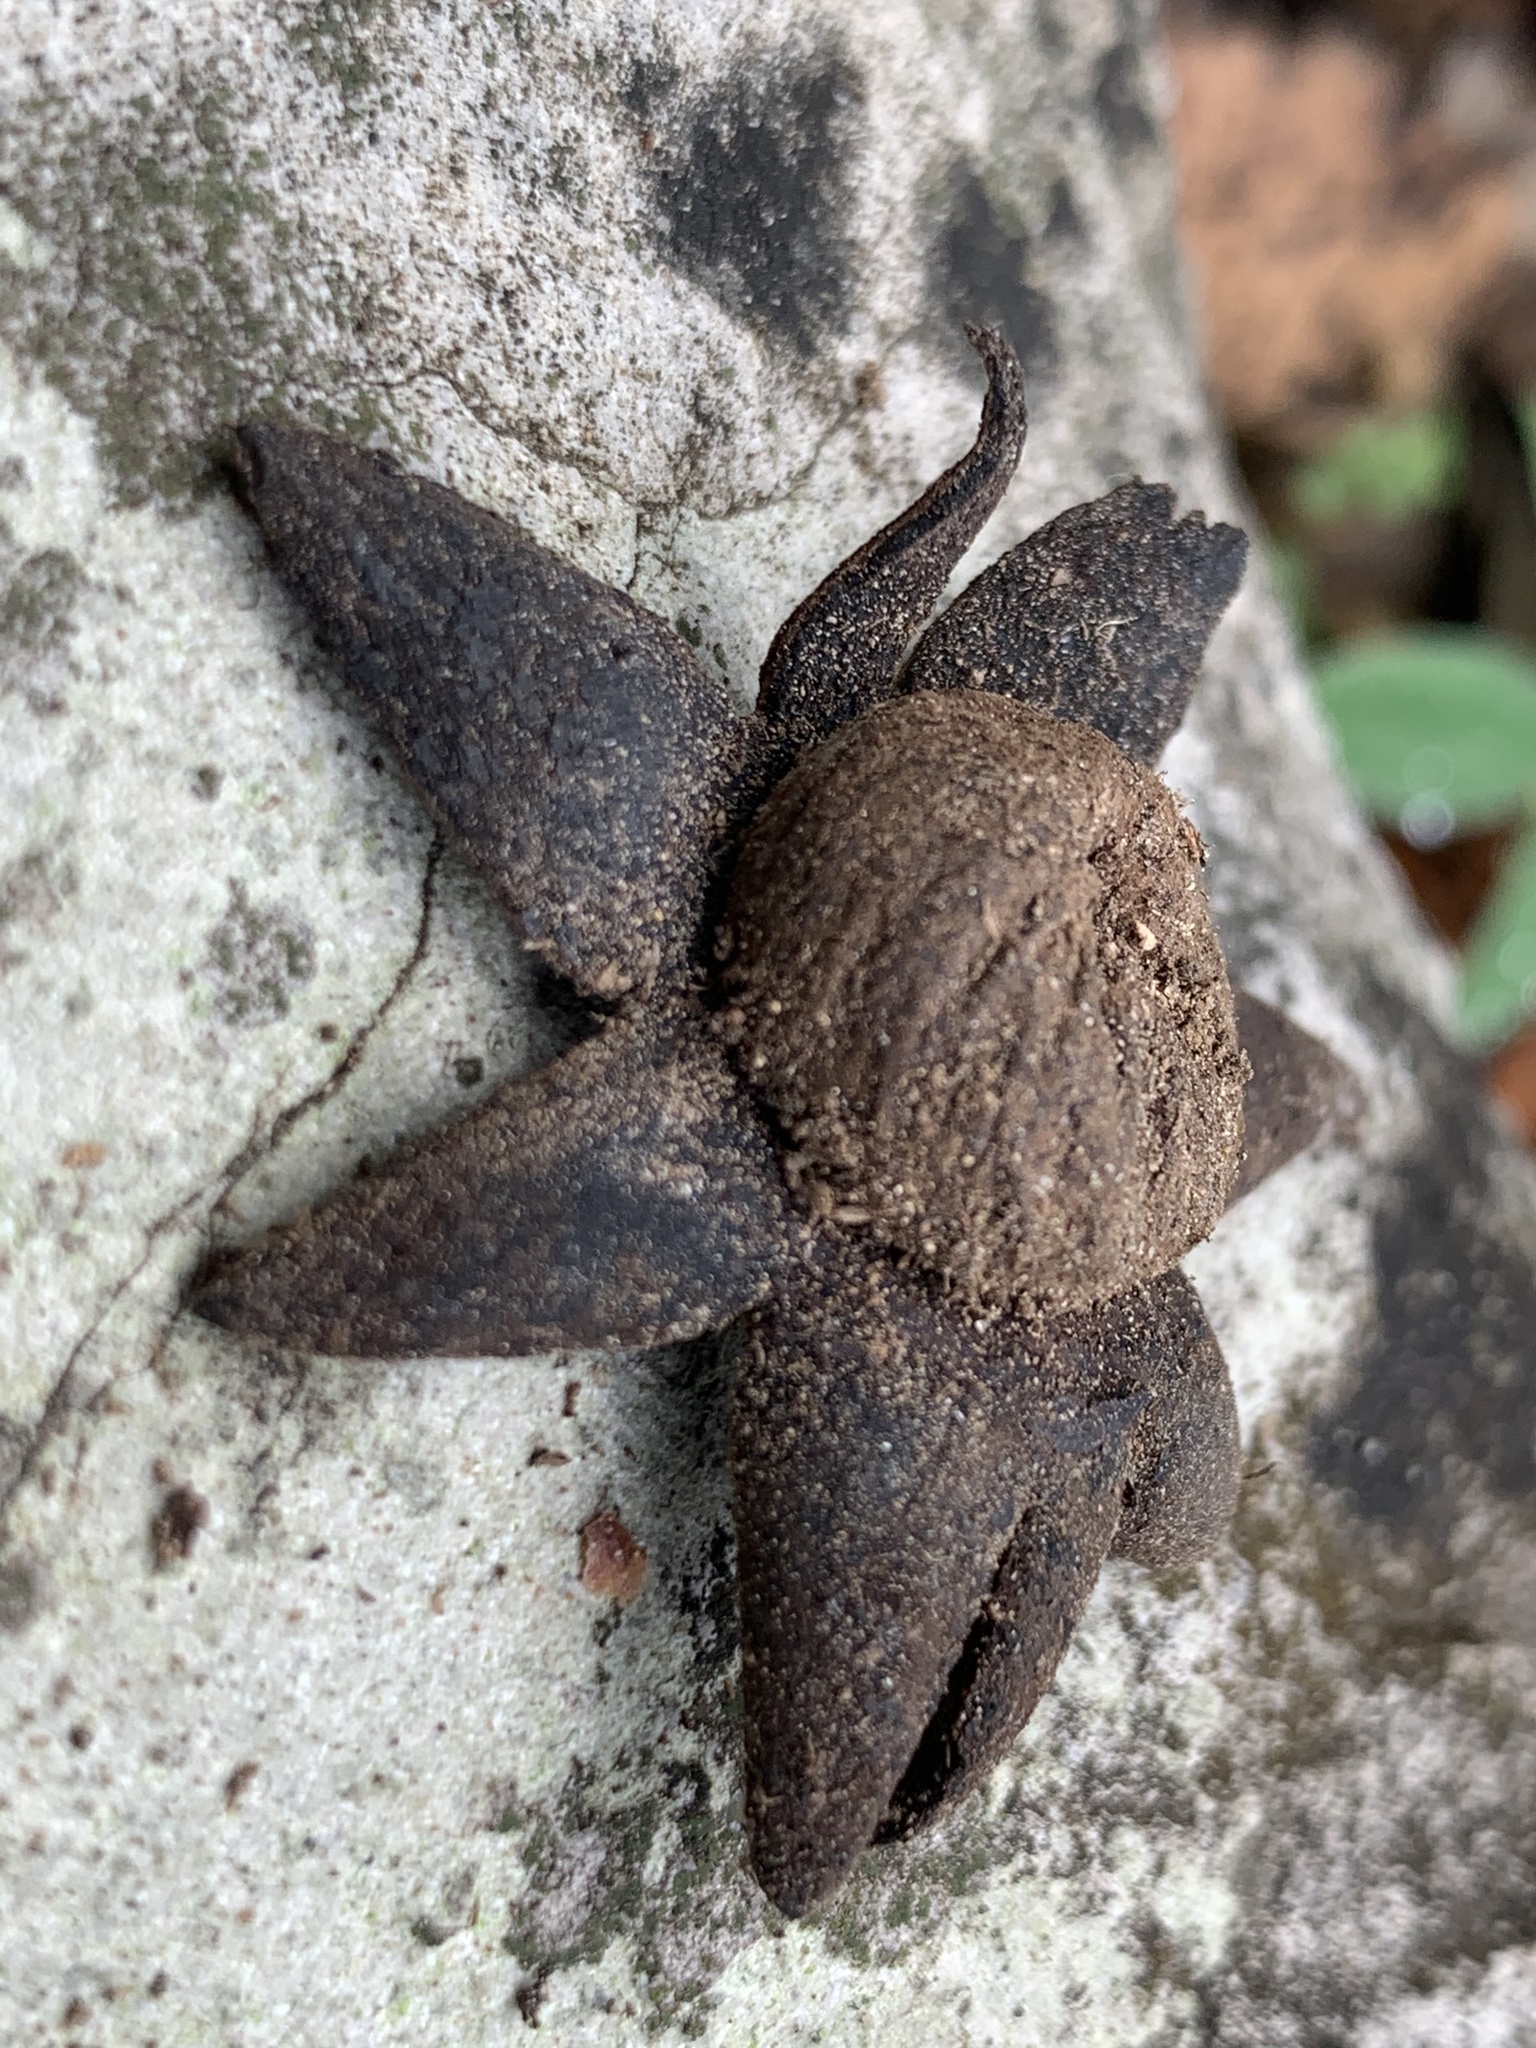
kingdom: Fungi
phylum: Basidiomycota
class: Agaricomycetes
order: Boletales
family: Diplocystidiaceae
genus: Astraeus
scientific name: Astraeus morganii
